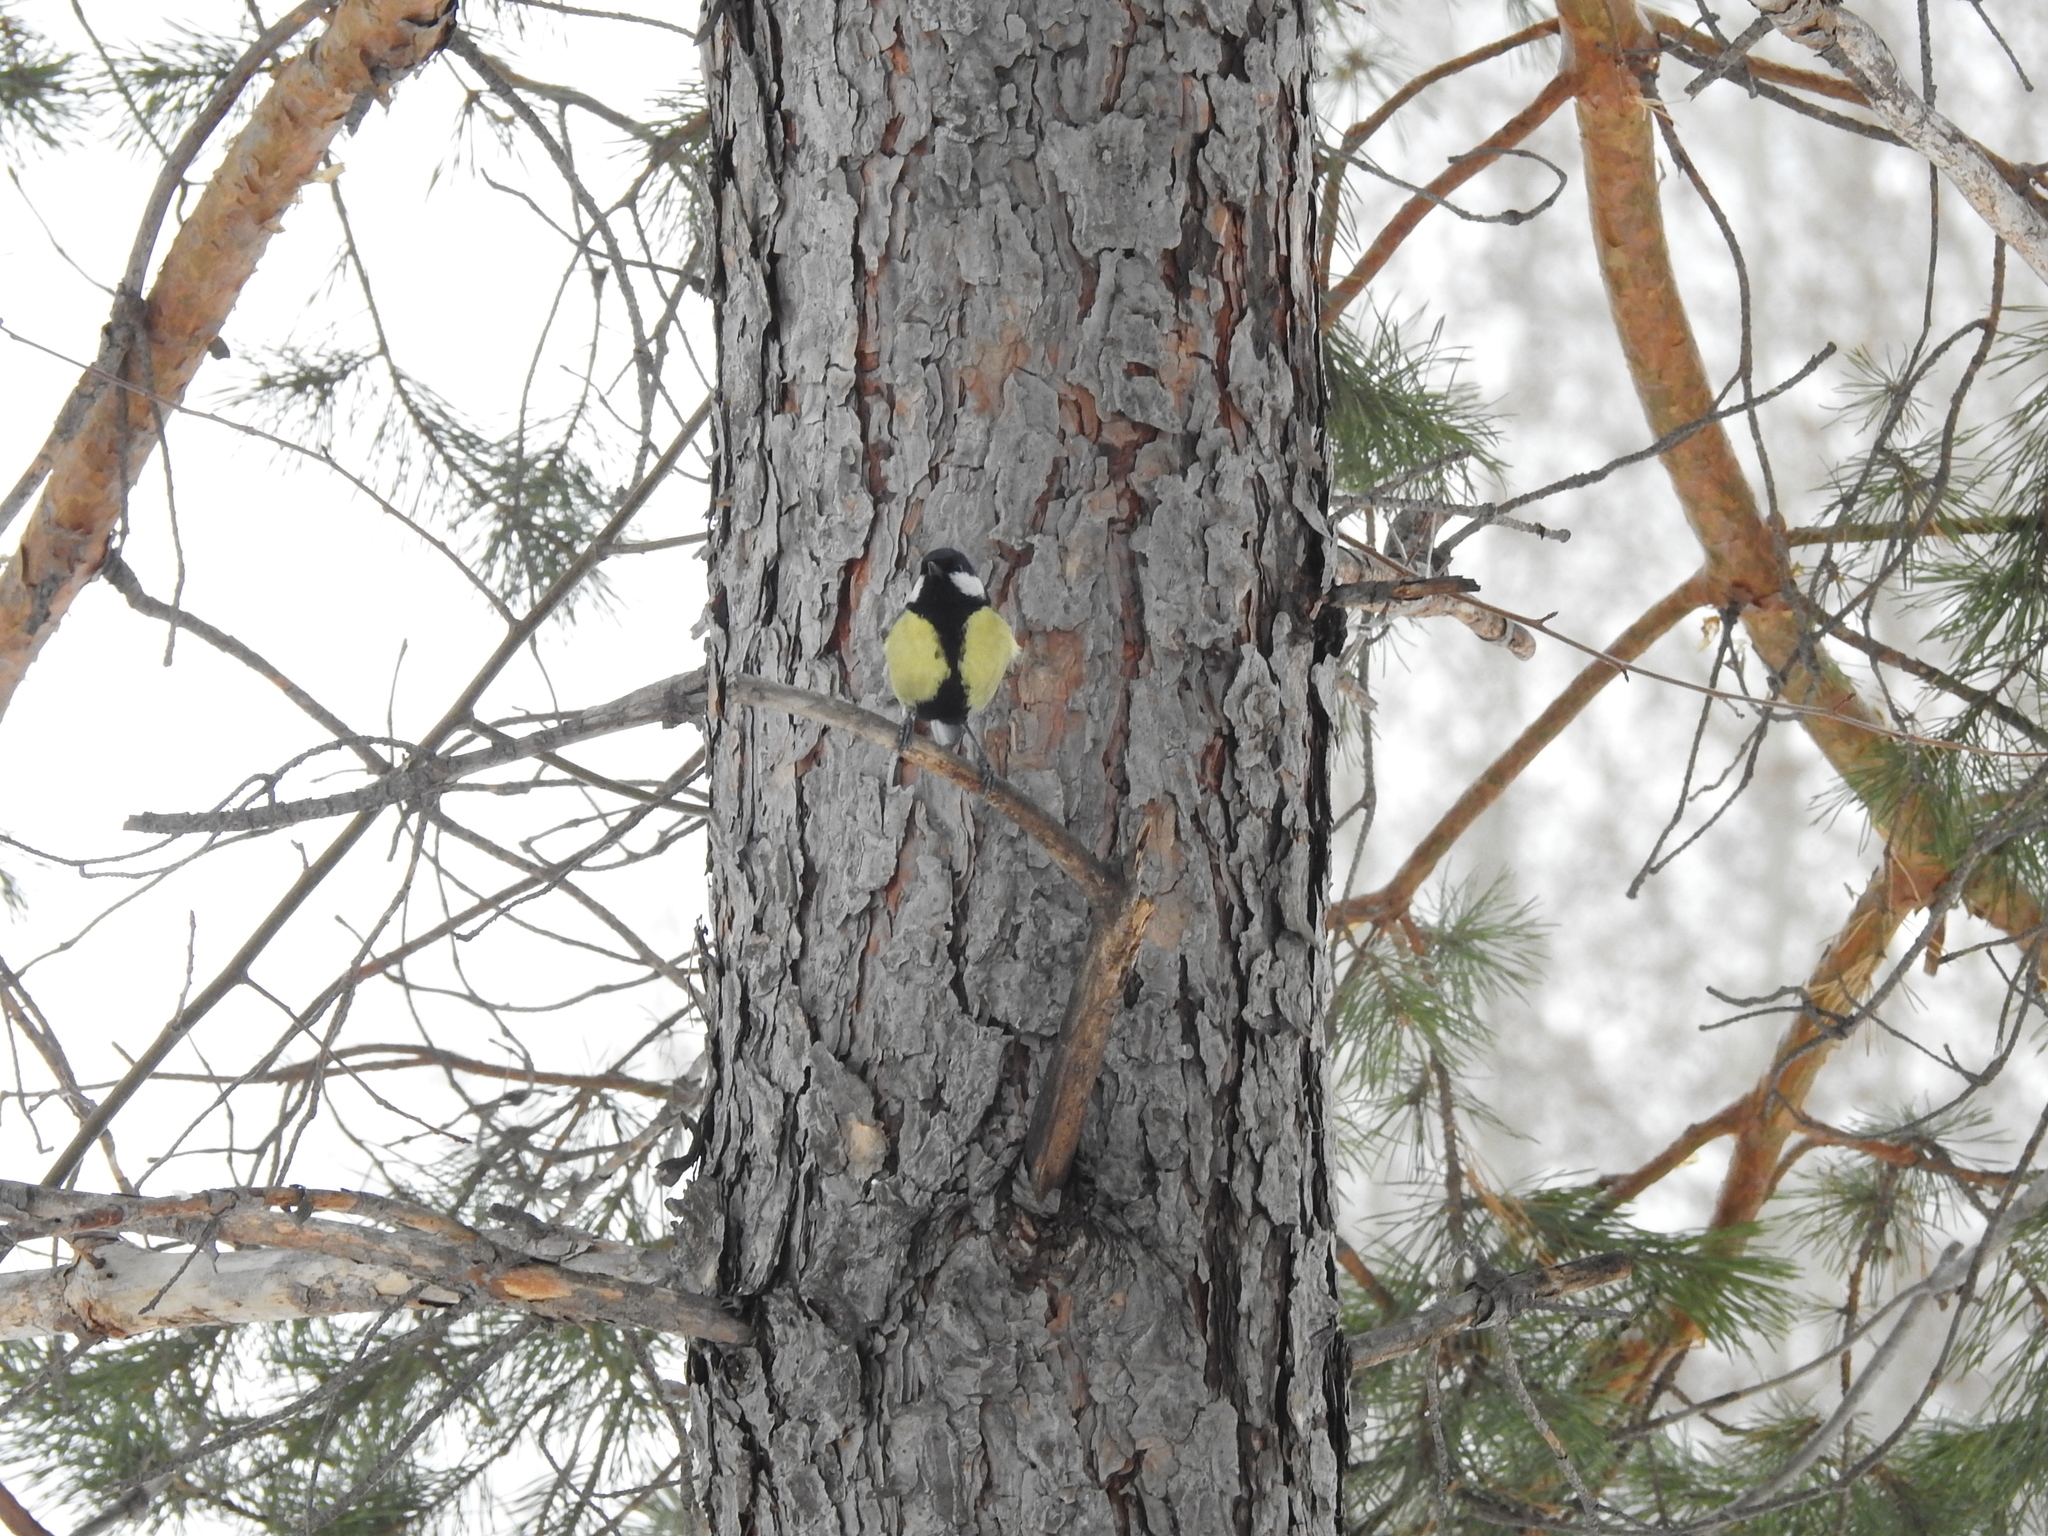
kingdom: Animalia
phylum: Chordata
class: Aves
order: Passeriformes
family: Paridae
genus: Parus
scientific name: Parus major
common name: Great tit
